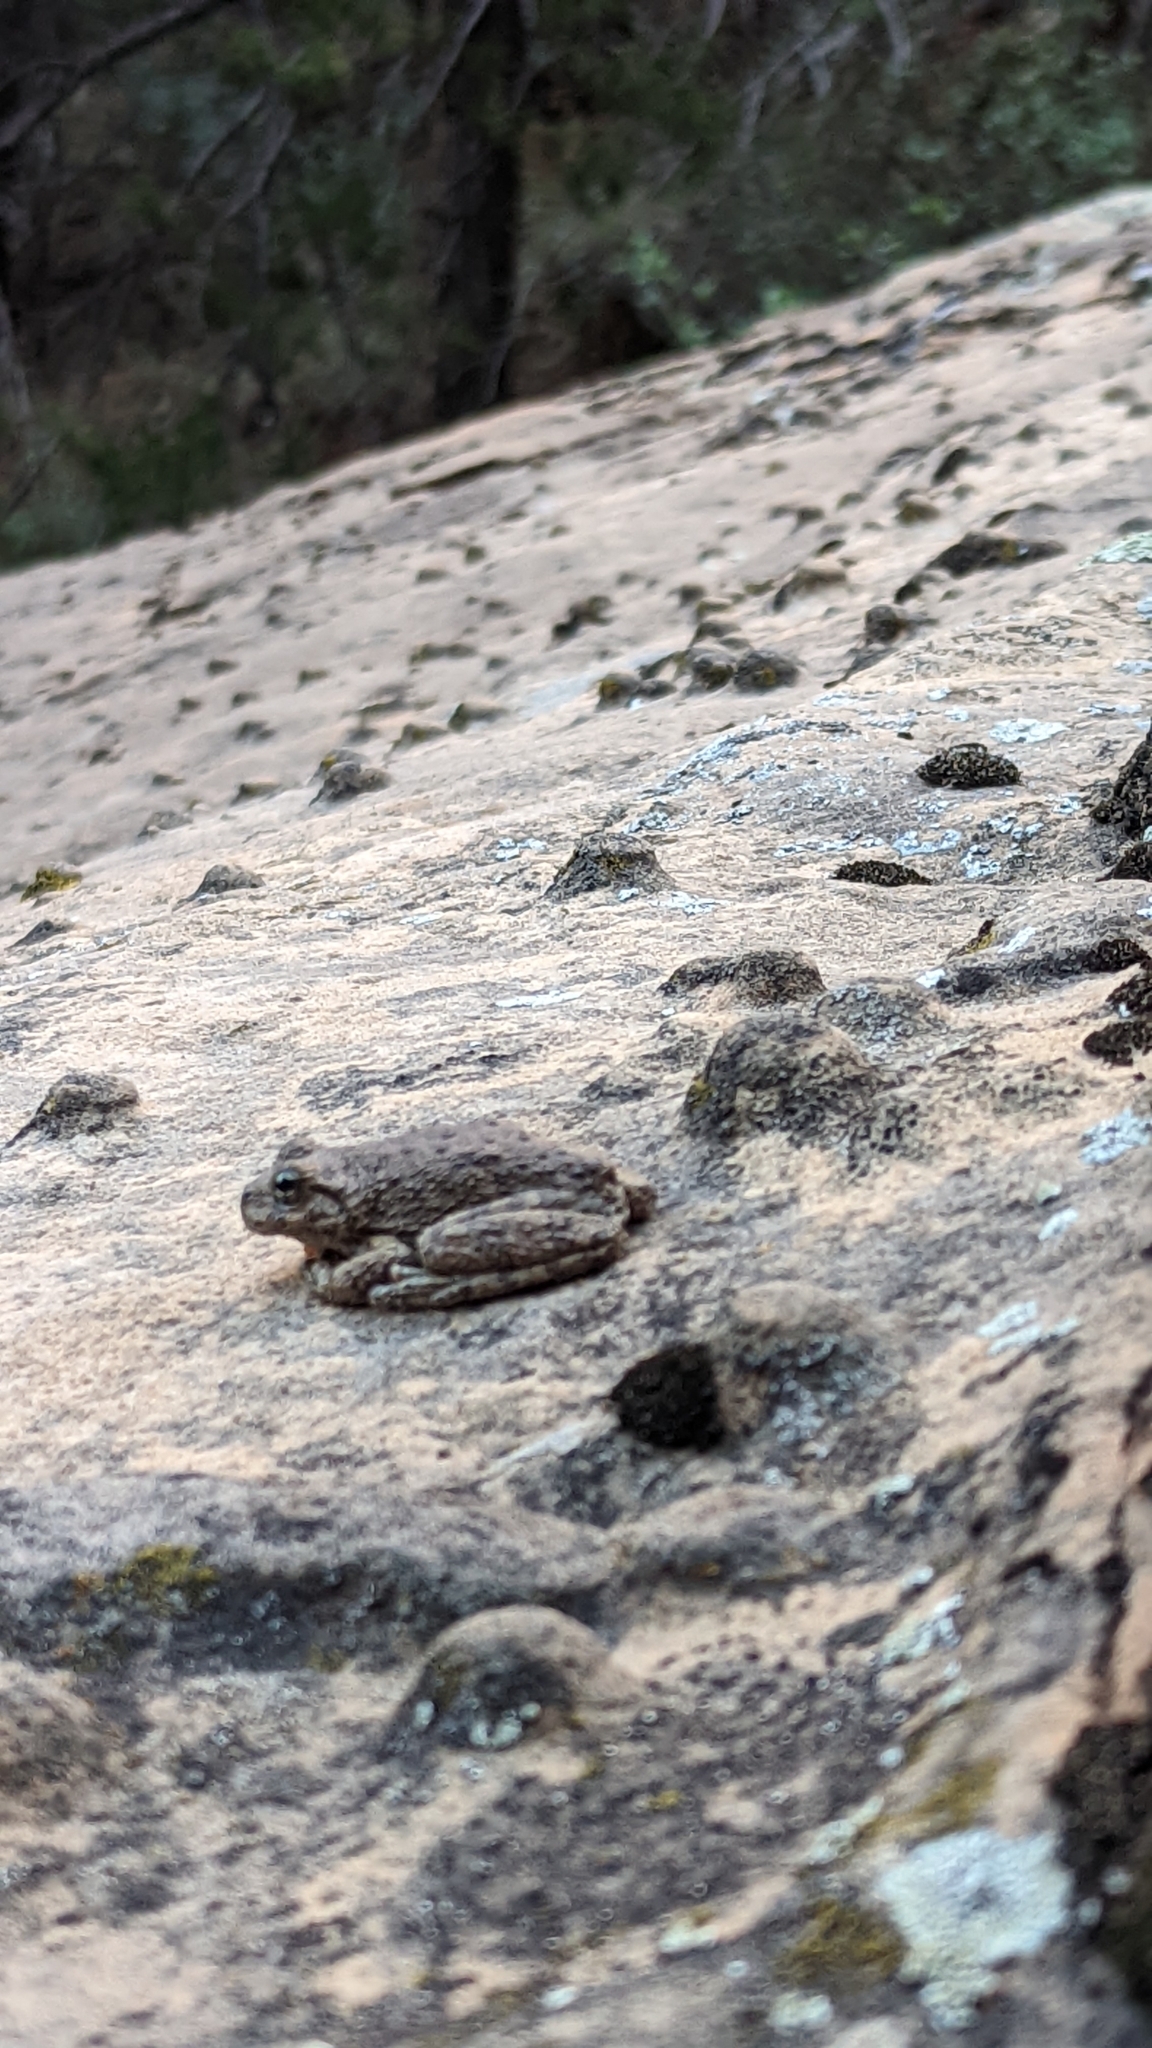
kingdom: Animalia
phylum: Chordata
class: Amphibia
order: Anura
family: Hylidae
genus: Dryophytes
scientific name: Dryophytes arenicolor
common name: Canyon treefrog
